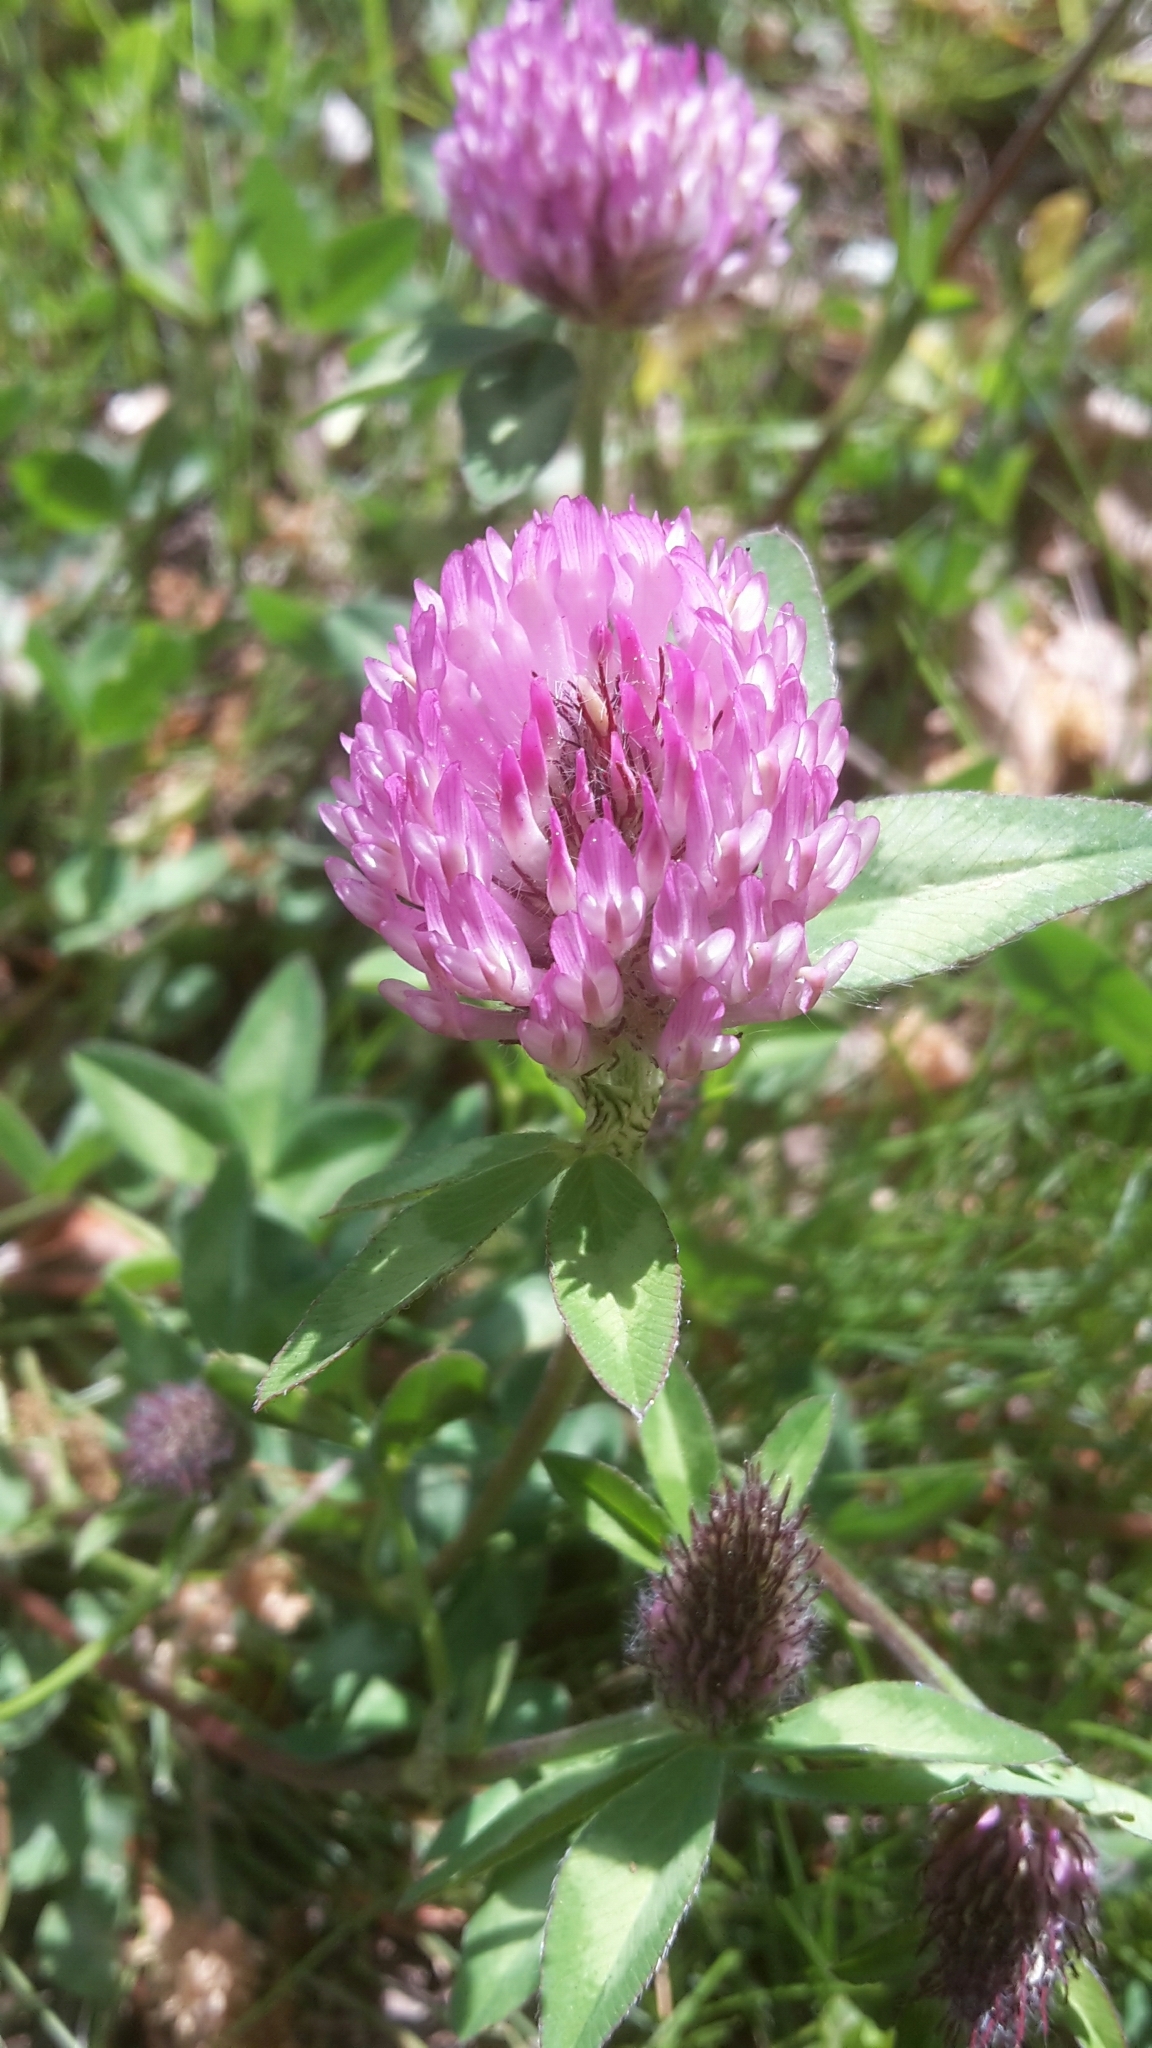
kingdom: Plantae
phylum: Tracheophyta
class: Magnoliopsida
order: Fabales
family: Fabaceae
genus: Trifolium
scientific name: Trifolium pratense
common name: Red clover
